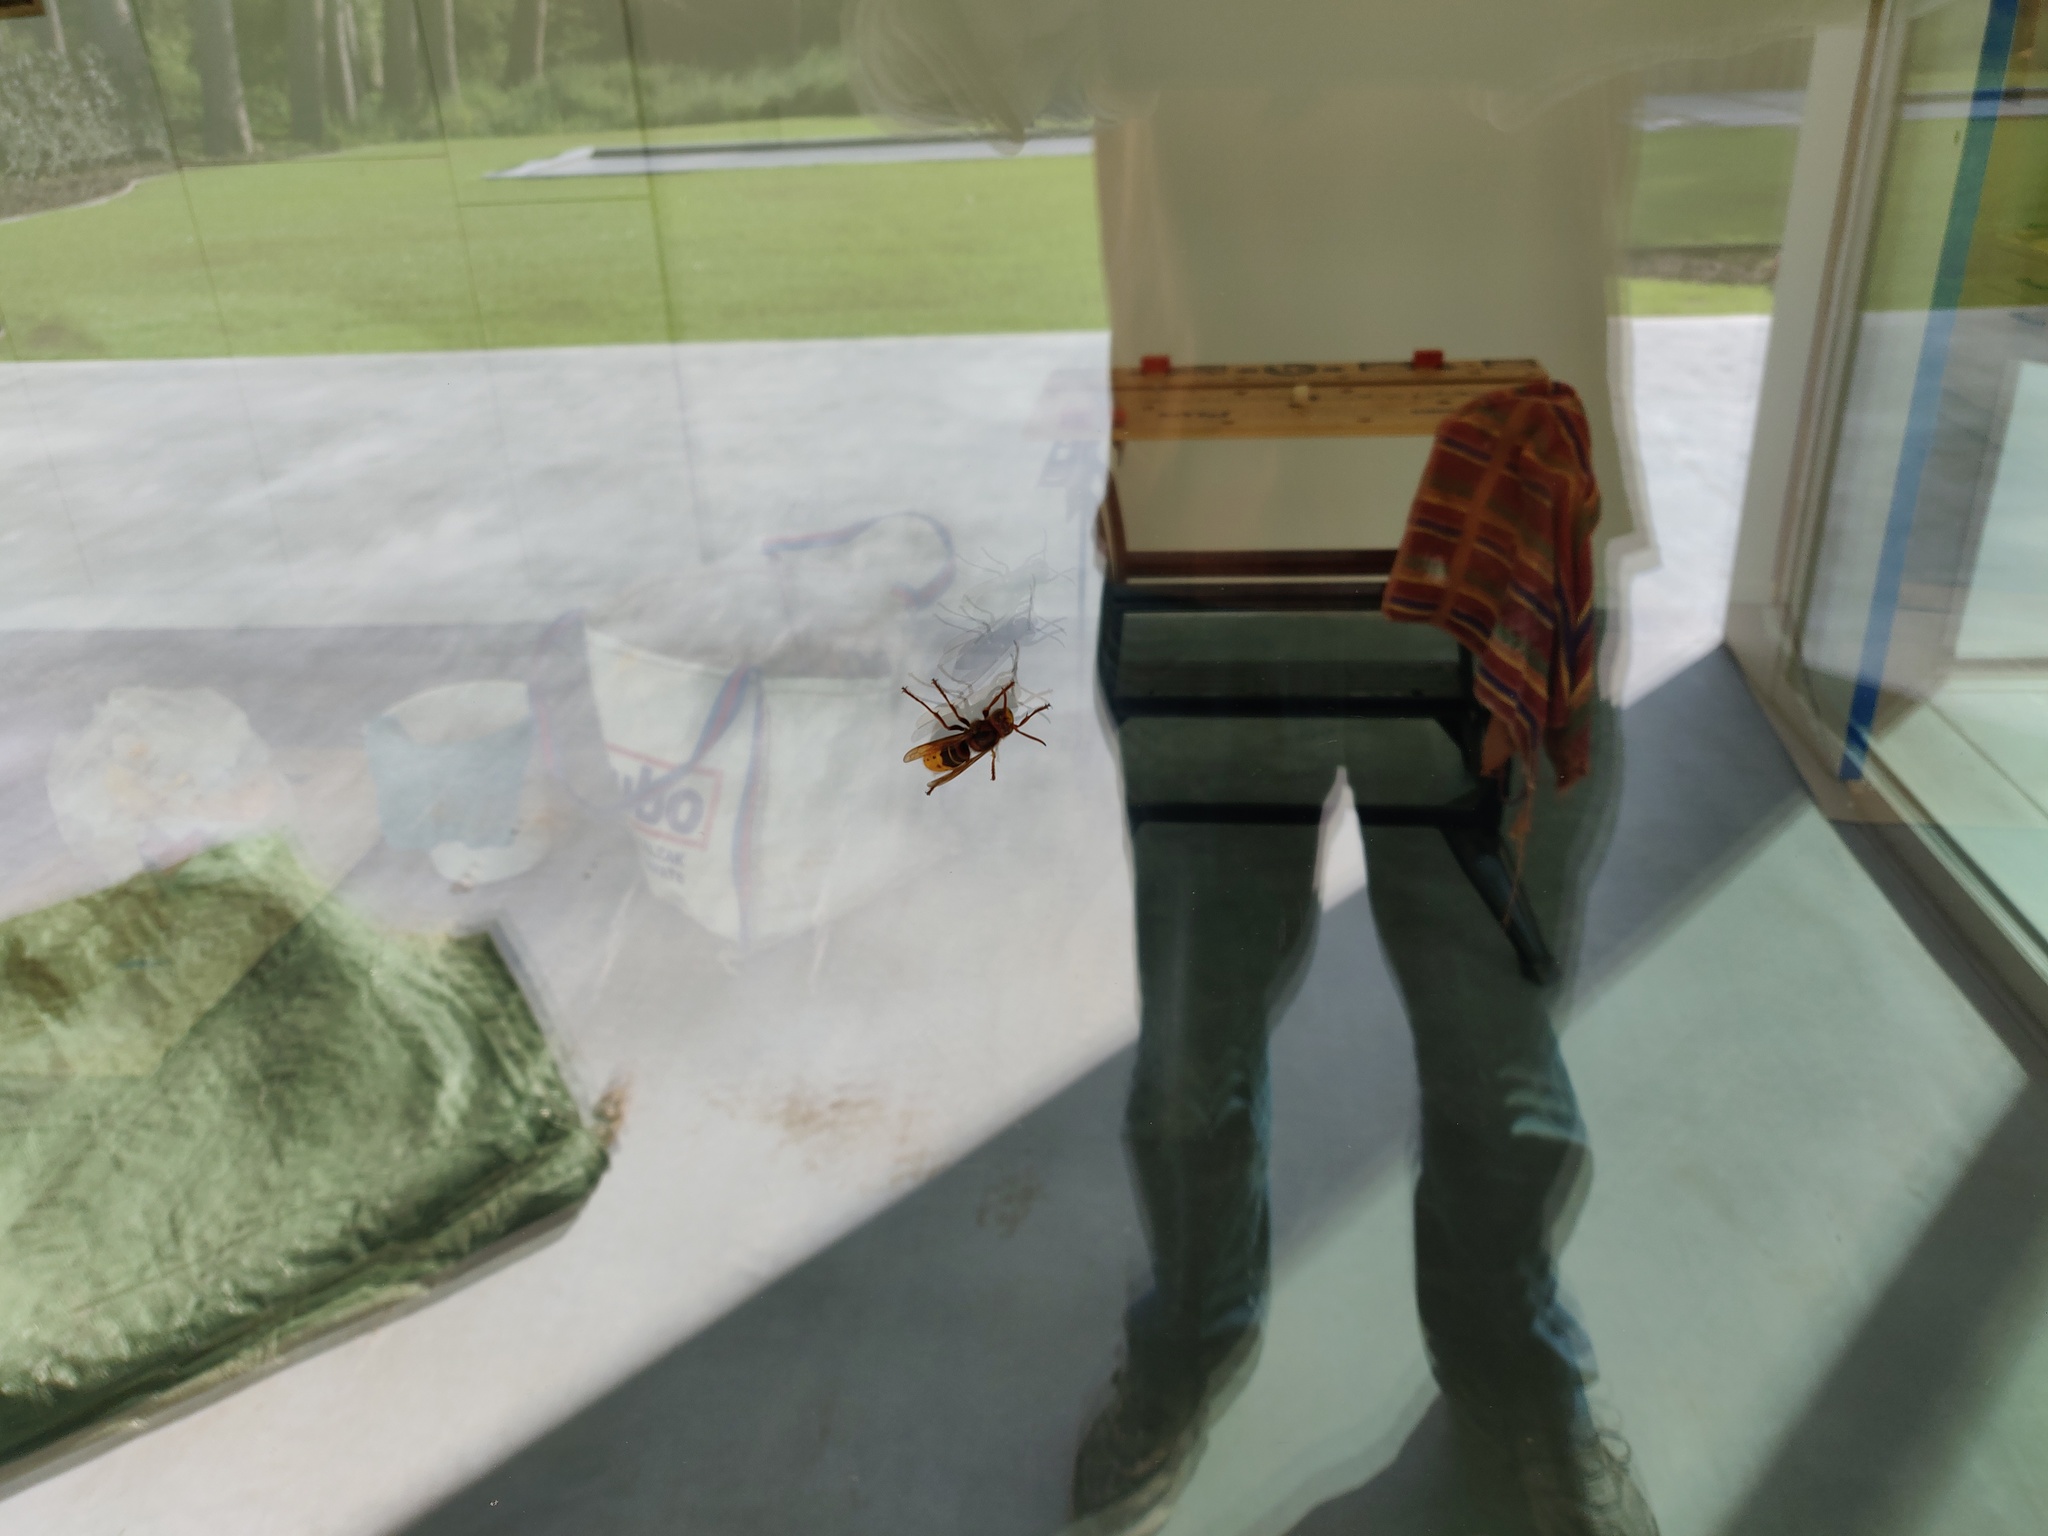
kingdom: Animalia
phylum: Arthropoda
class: Insecta
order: Hymenoptera
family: Vespidae
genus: Vespa
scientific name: Vespa crabro
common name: Hornet
